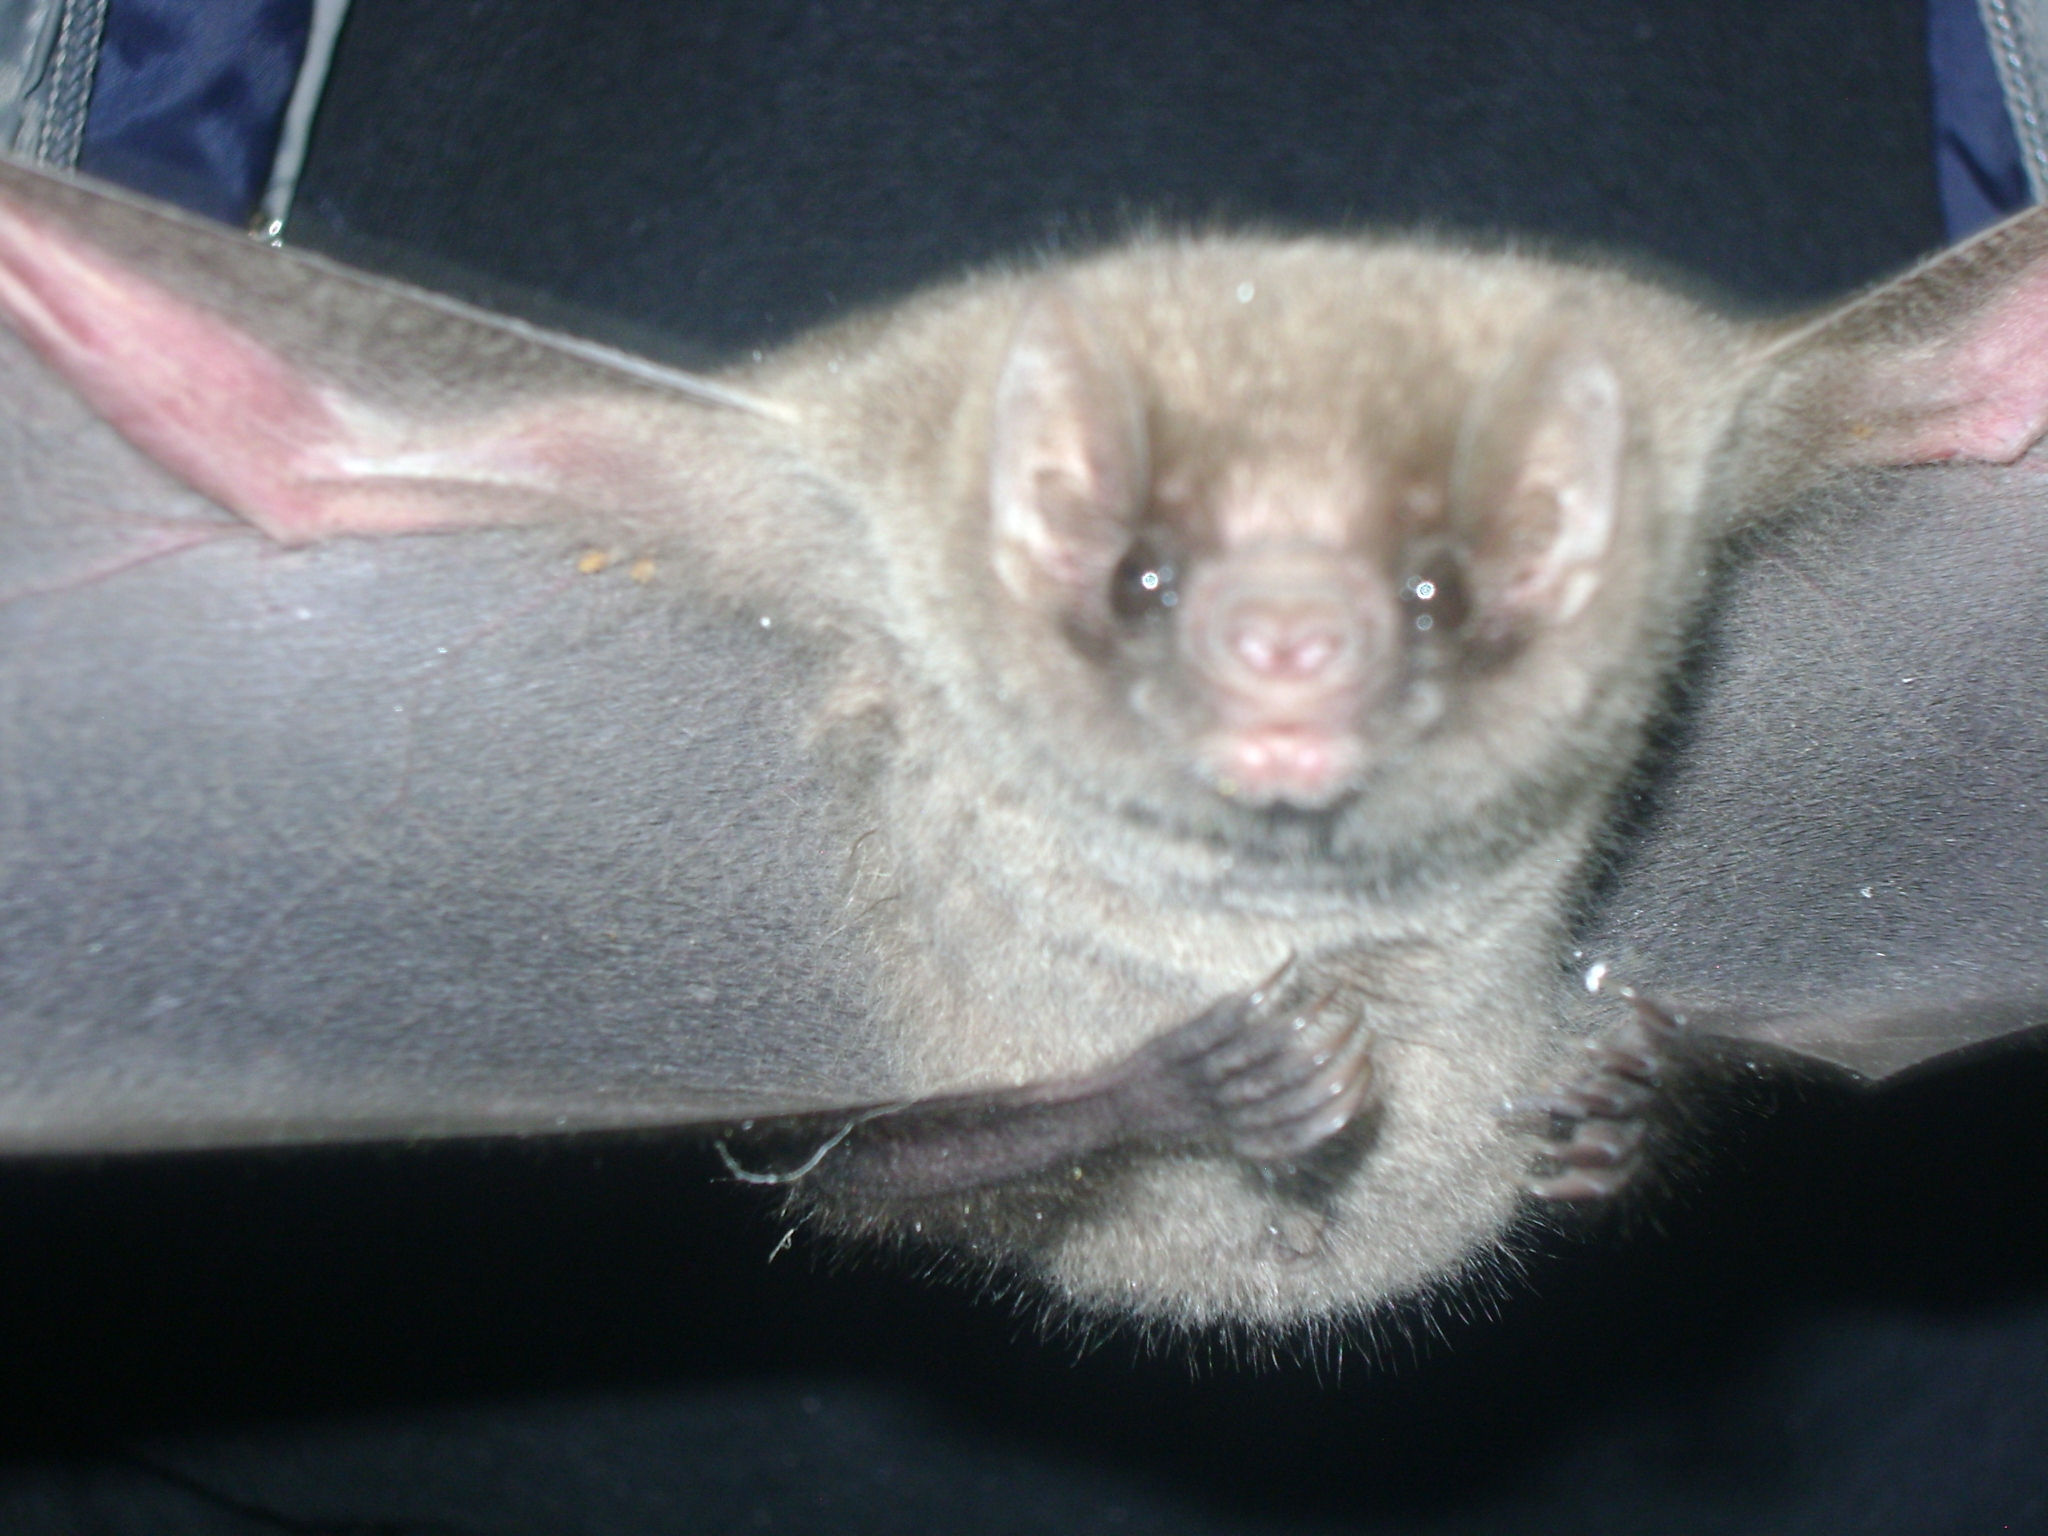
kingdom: Animalia
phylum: Chordata
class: Mammalia
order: Chiroptera
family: Phyllostomidae
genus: Diphylla
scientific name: Diphylla ecaudata
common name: Hairy-legged vampire bat
